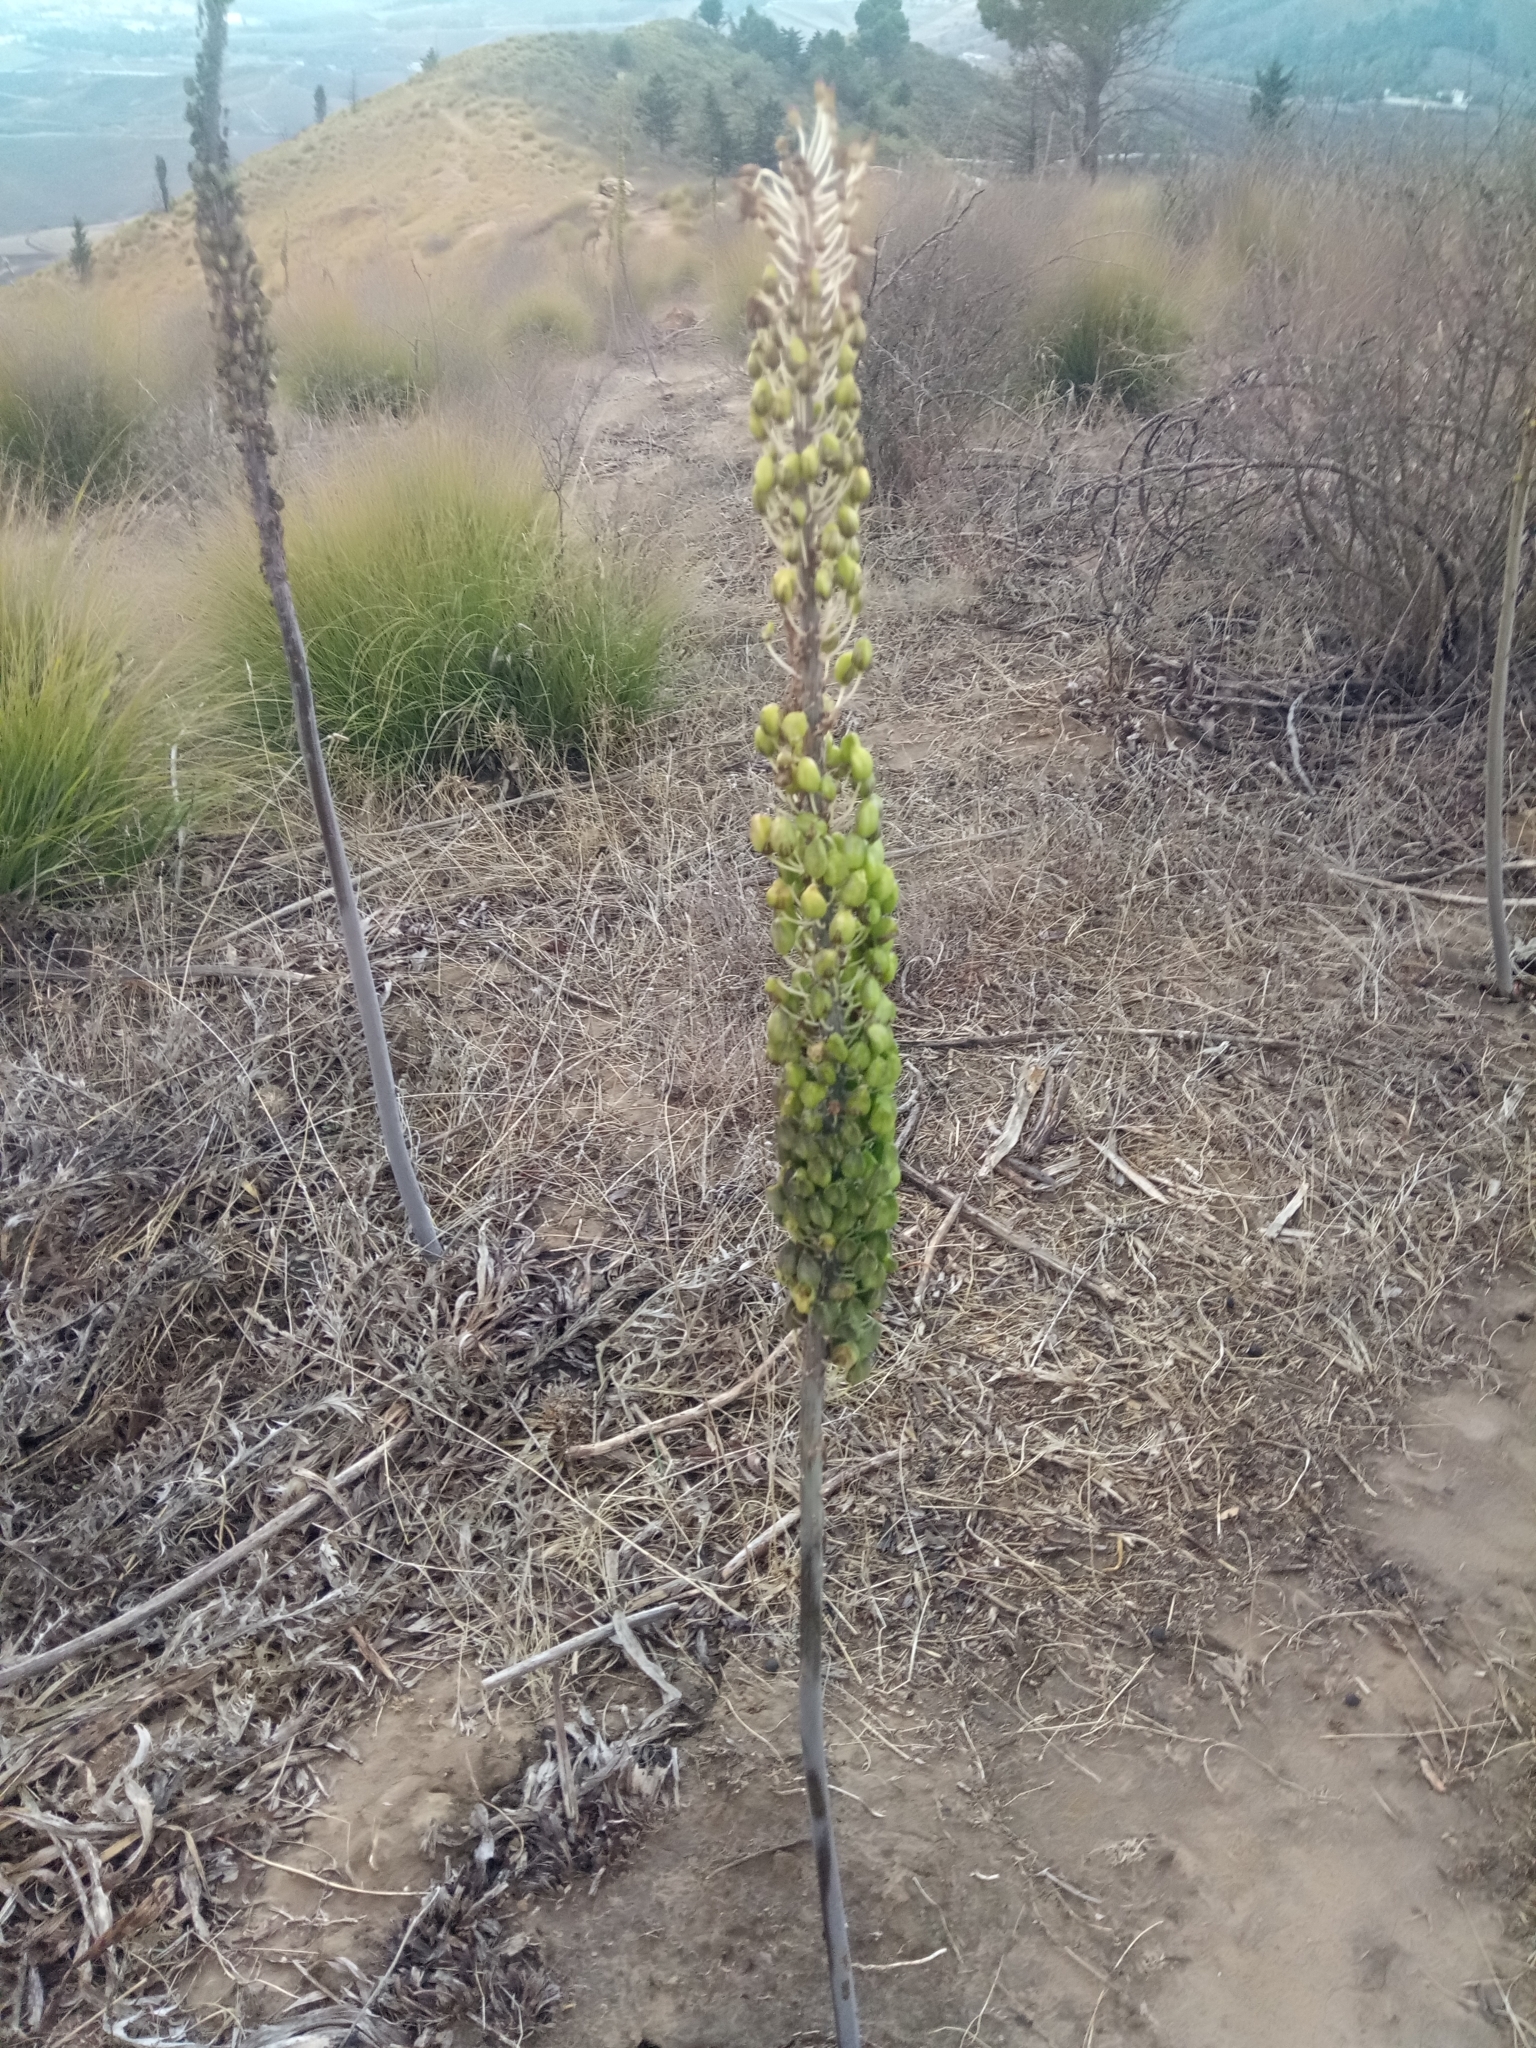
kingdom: Plantae
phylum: Tracheophyta
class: Liliopsida
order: Asparagales
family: Asparagaceae
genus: Drimia
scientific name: Drimia numidica
